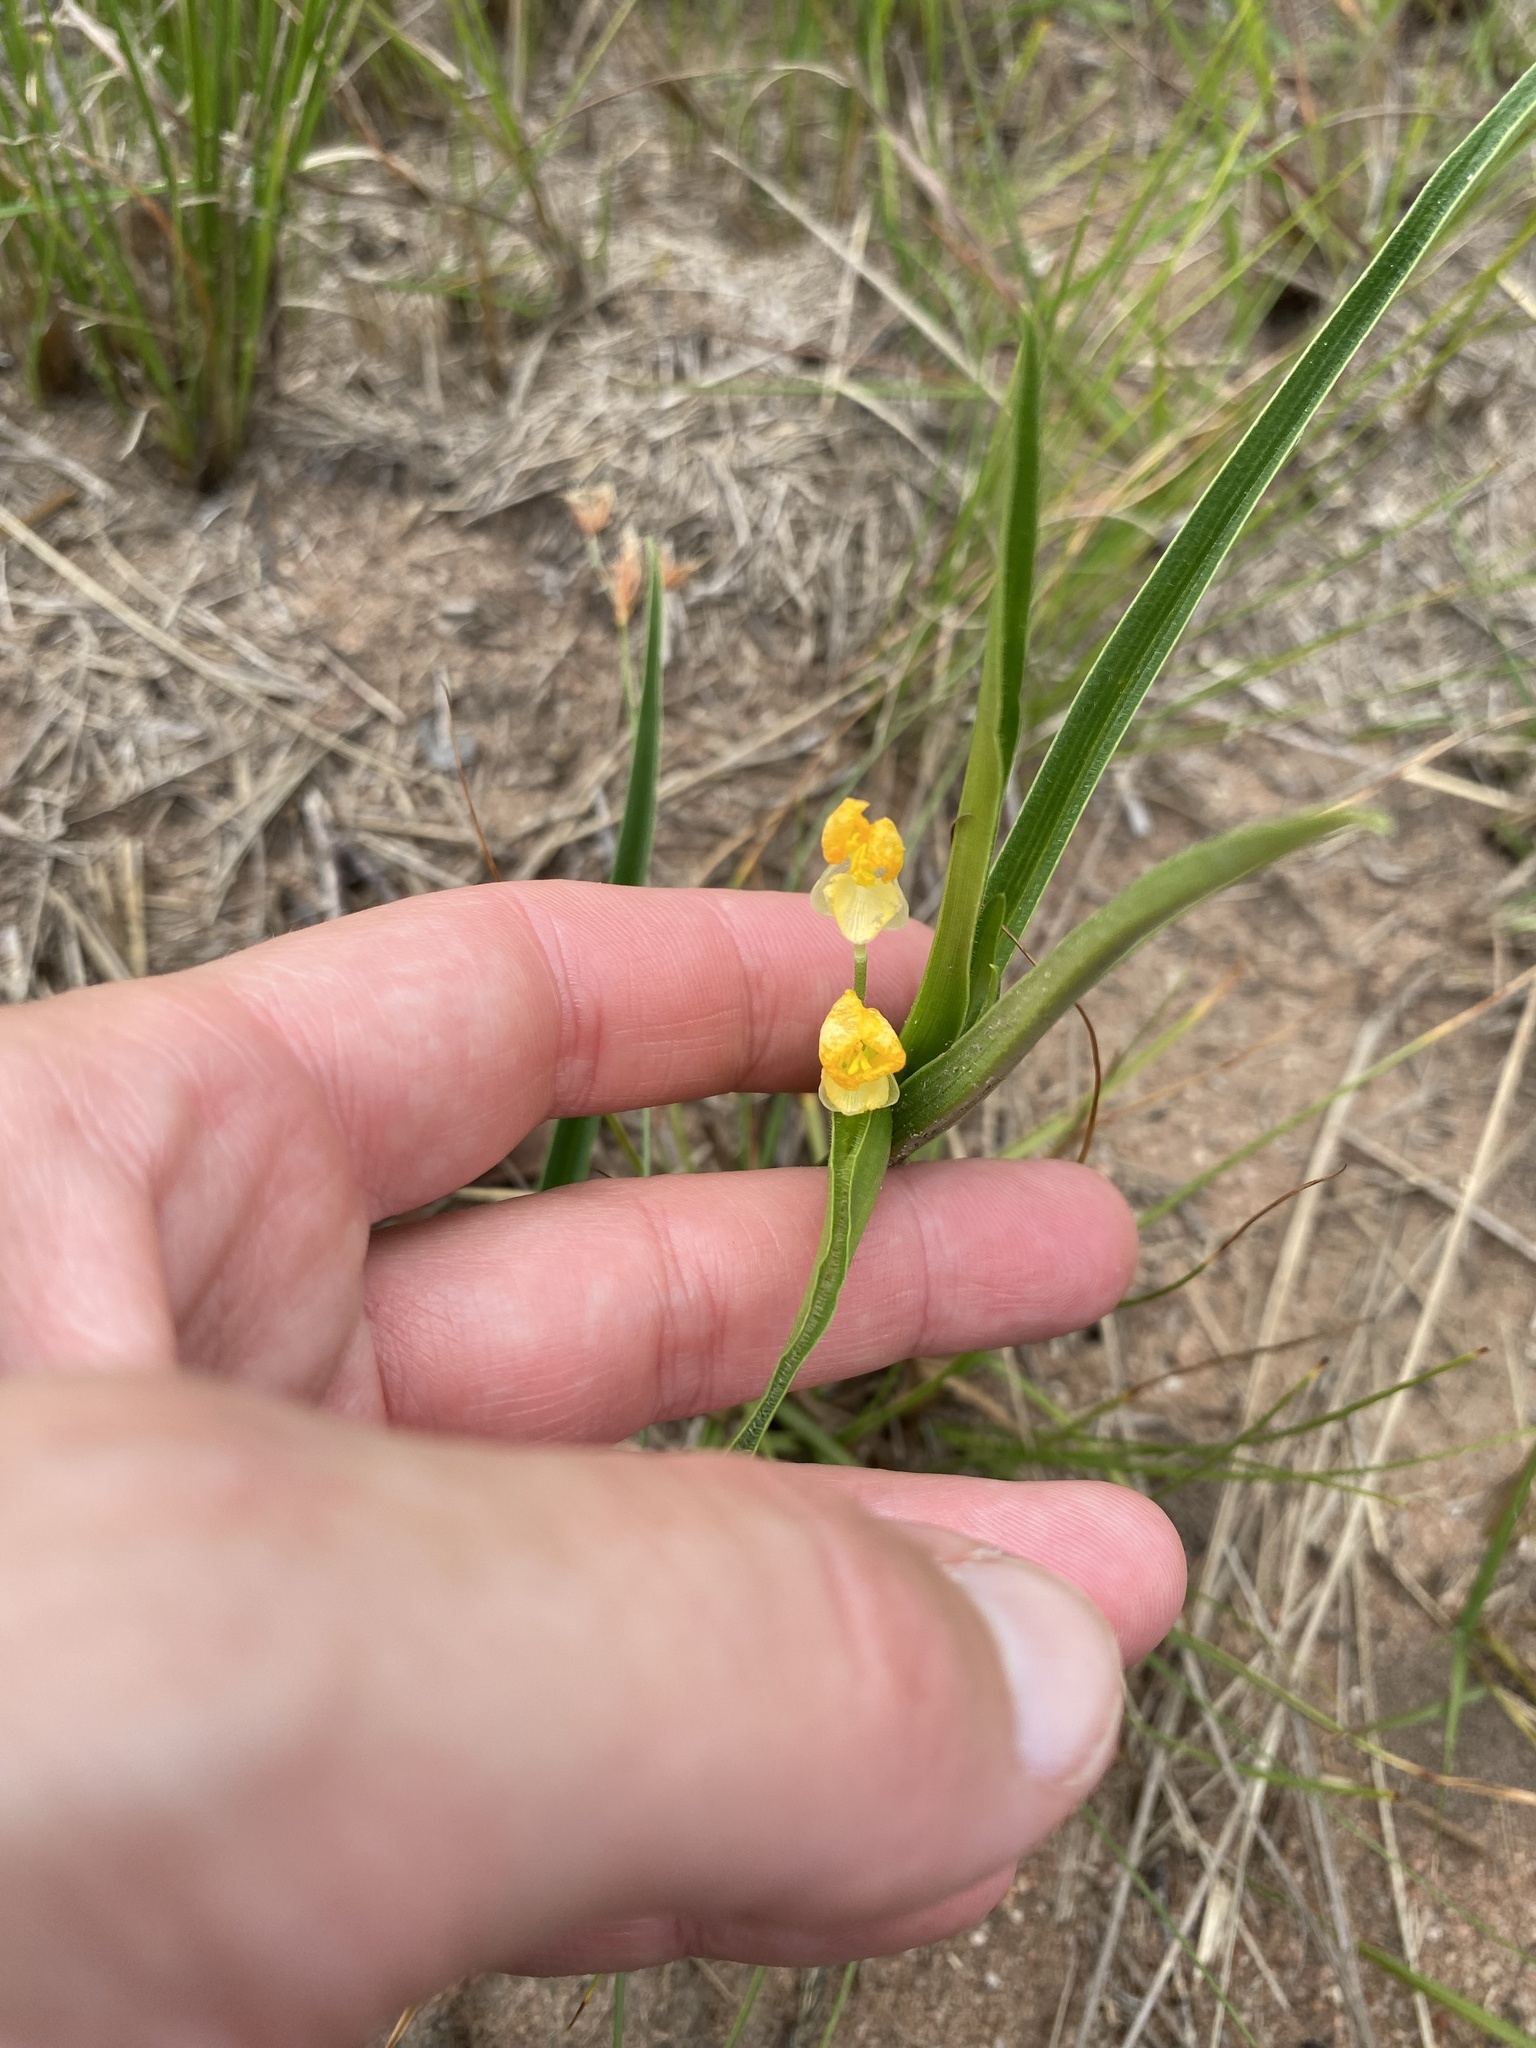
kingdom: Plantae
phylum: Tracheophyta
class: Liliopsida
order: Commelinales
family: Commelinaceae
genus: Commelina
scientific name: Commelina africana
